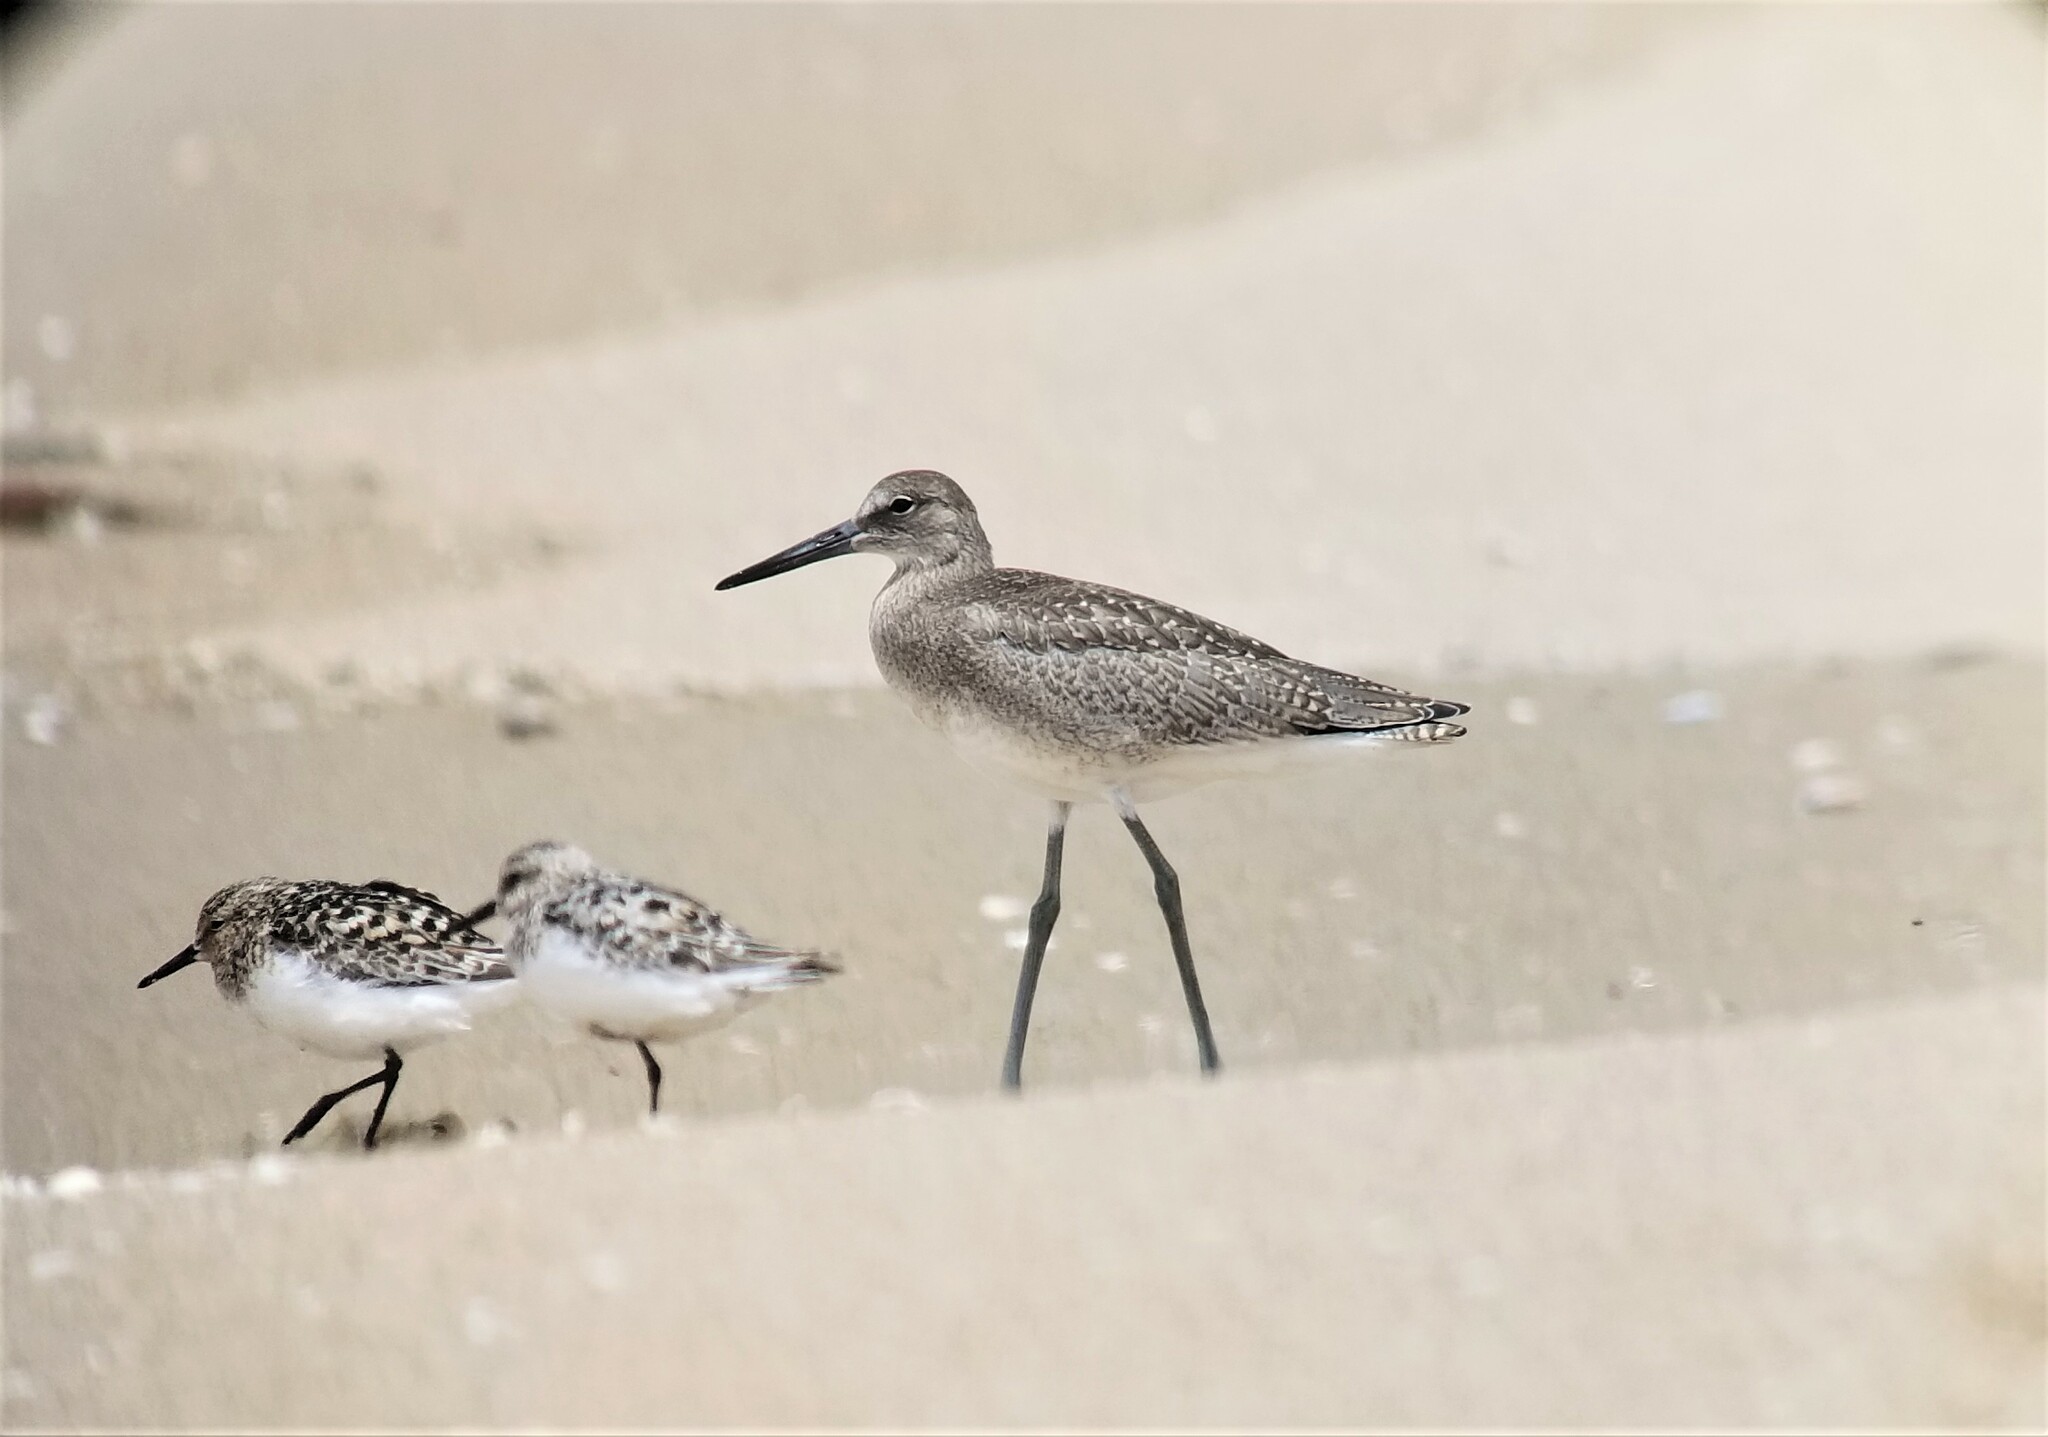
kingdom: Animalia
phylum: Chordata
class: Aves
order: Charadriiformes
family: Scolopacidae
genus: Tringa
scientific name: Tringa semipalmata
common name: Willet
